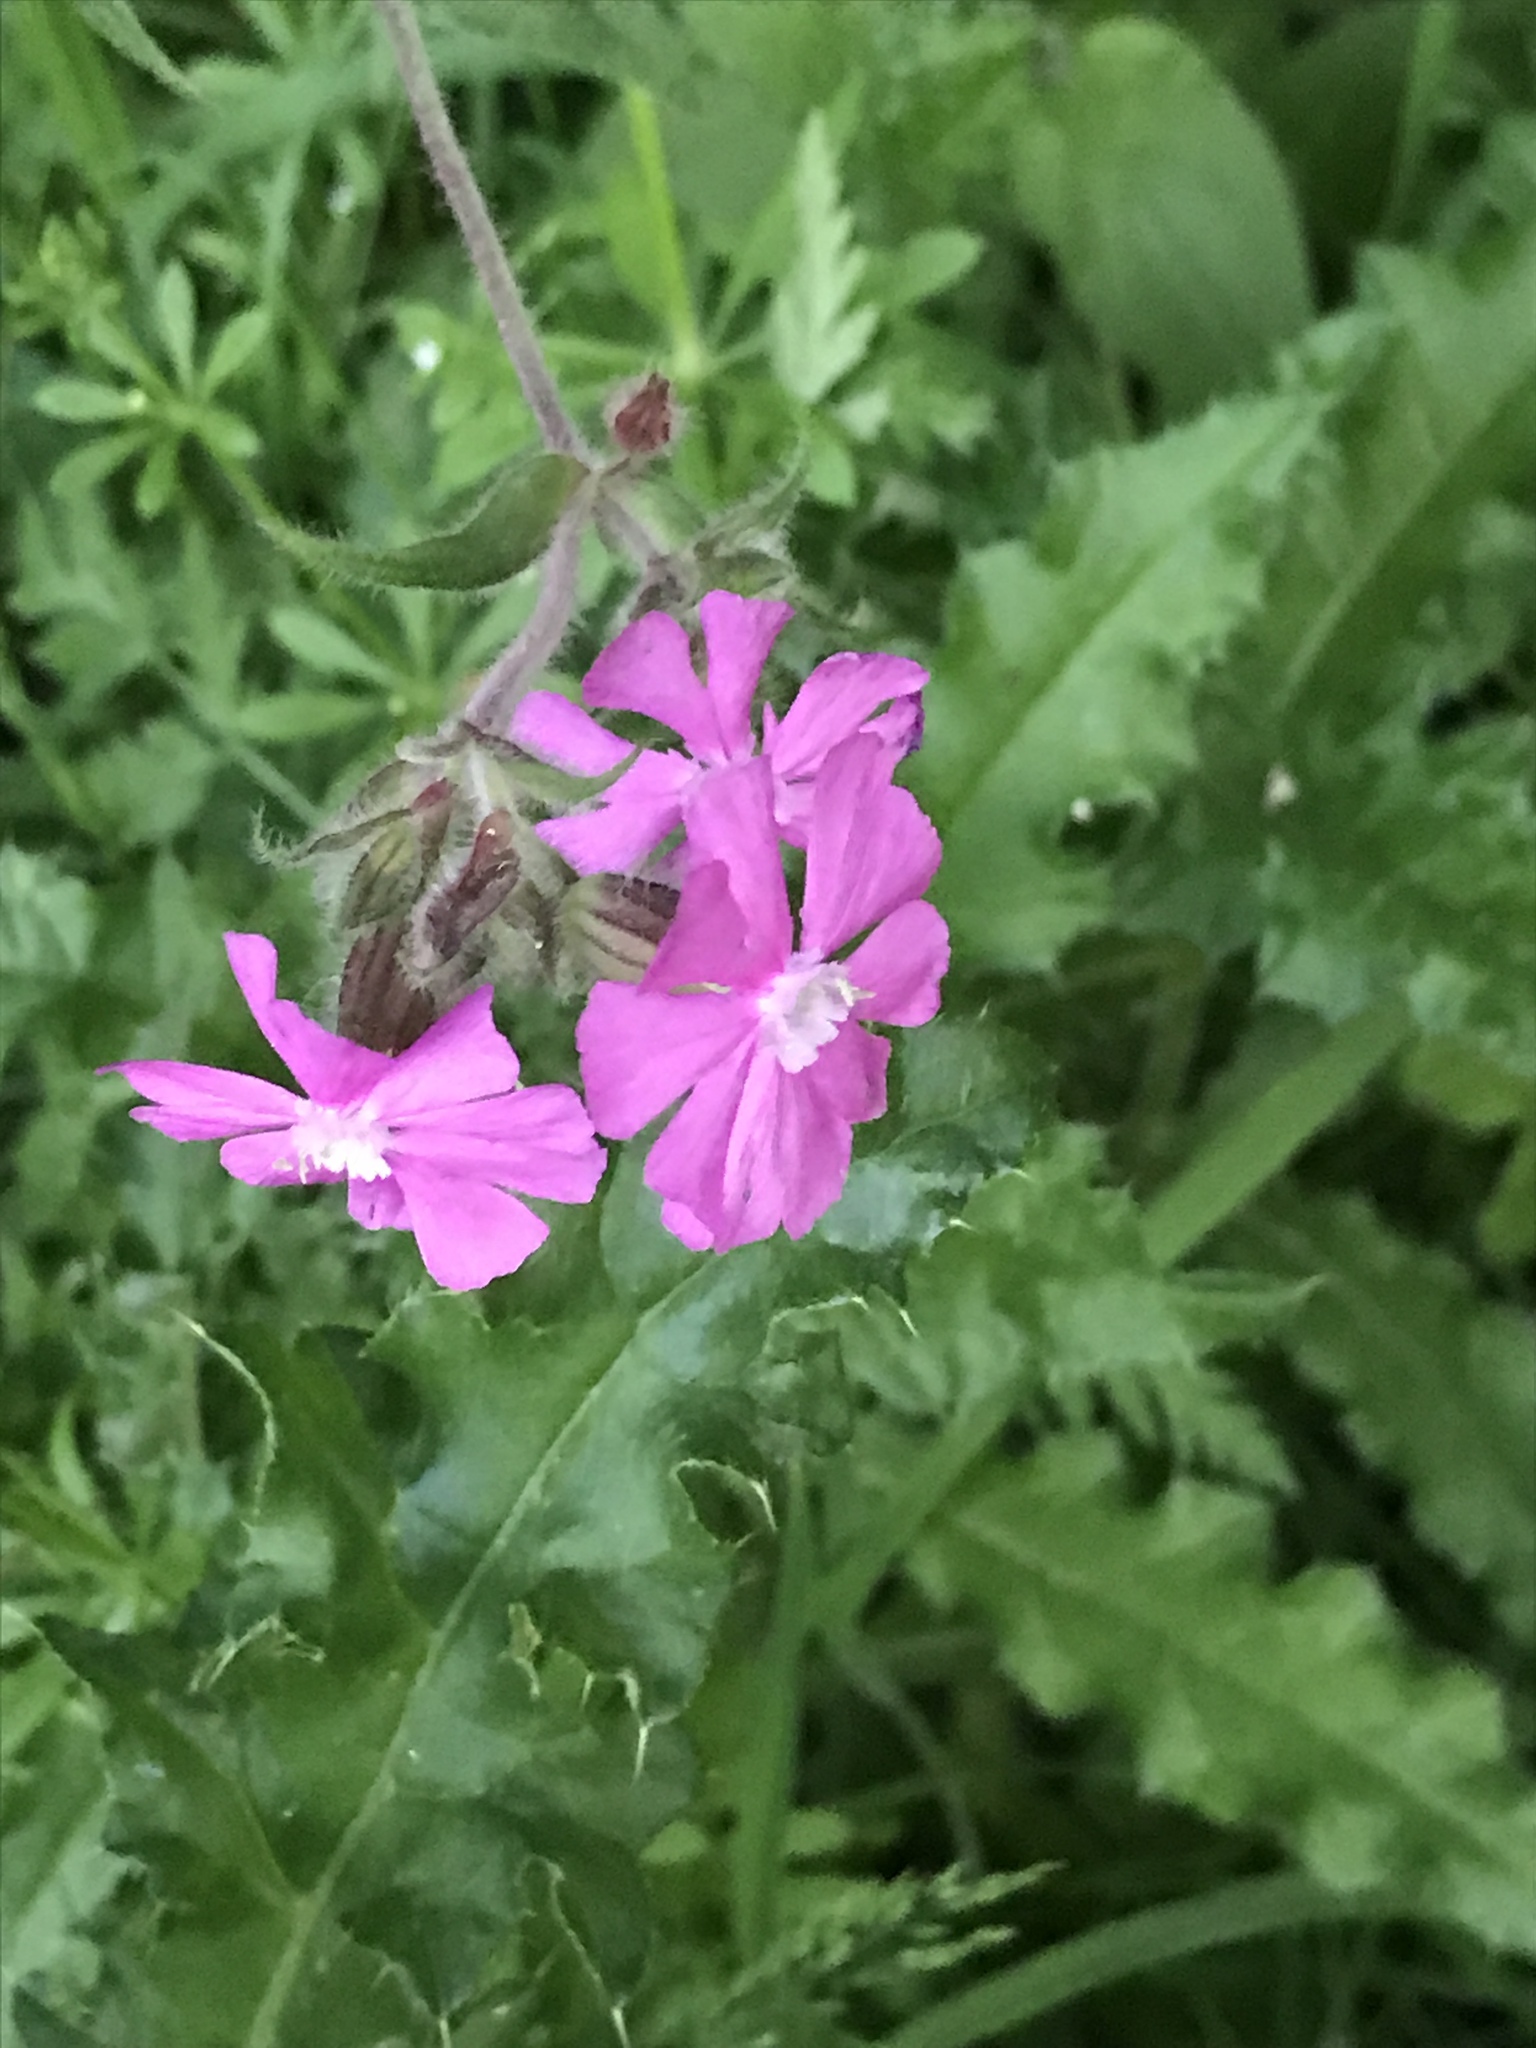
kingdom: Plantae
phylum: Tracheophyta
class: Magnoliopsida
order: Caryophyllales
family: Caryophyllaceae
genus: Silene
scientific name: Silene dioica
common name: Red campion
